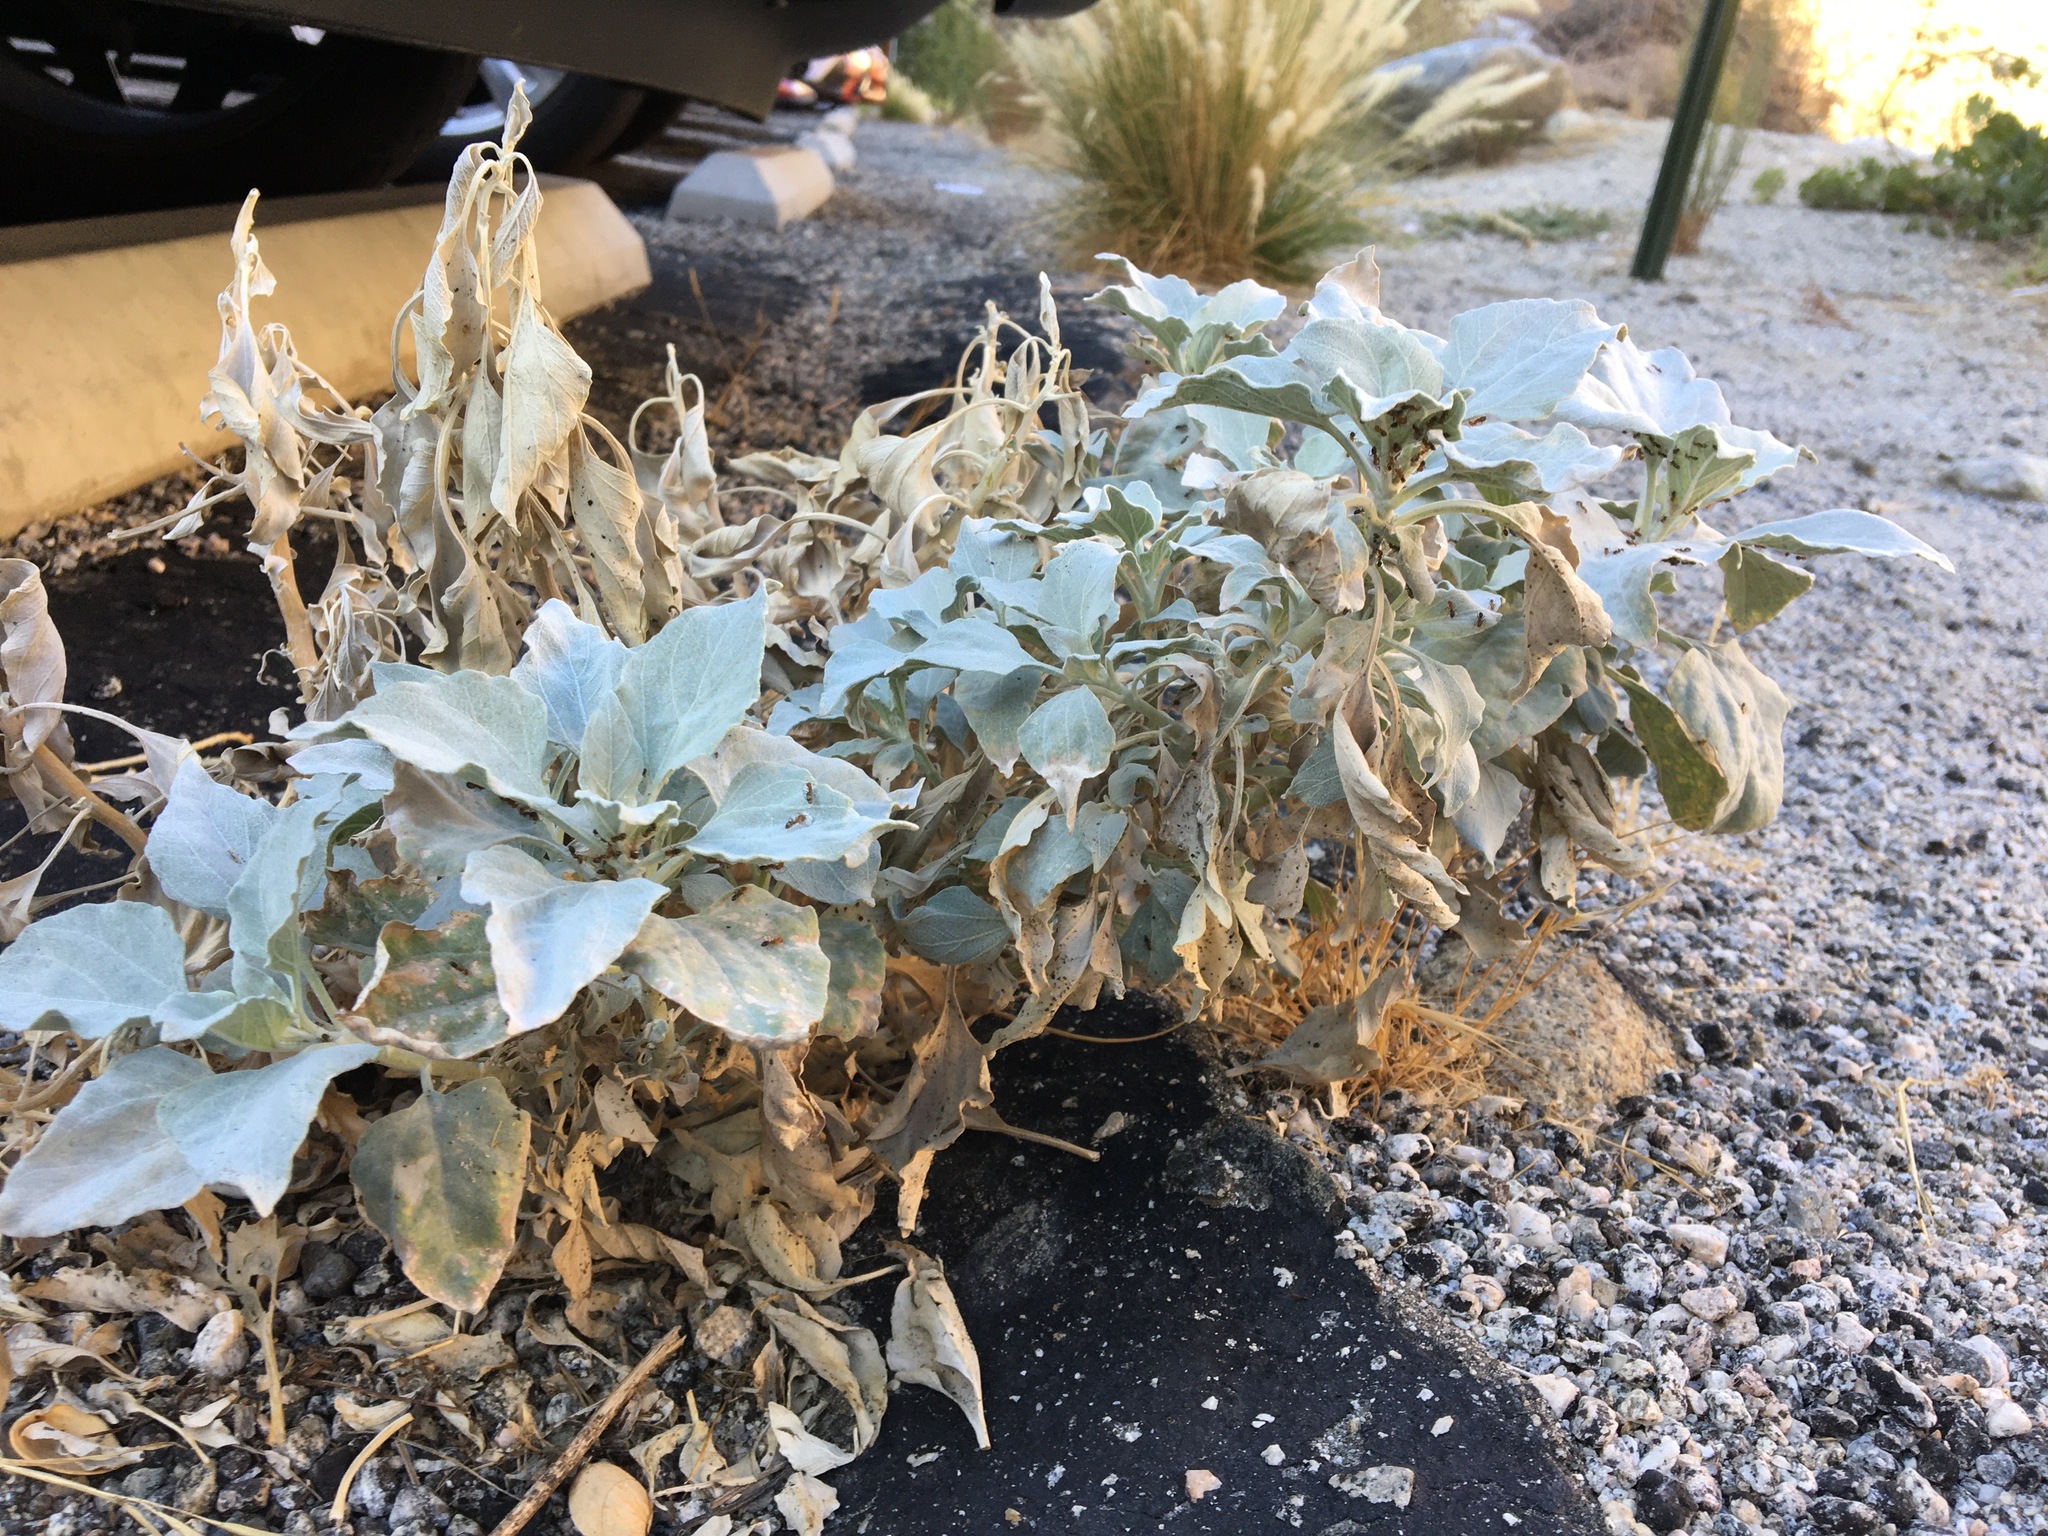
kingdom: Plantae
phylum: Tracheophyta
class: Magnoliopsida
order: Asterales
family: Asteraceae
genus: Encelia
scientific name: Encelia farinosa
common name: Brittlebush
